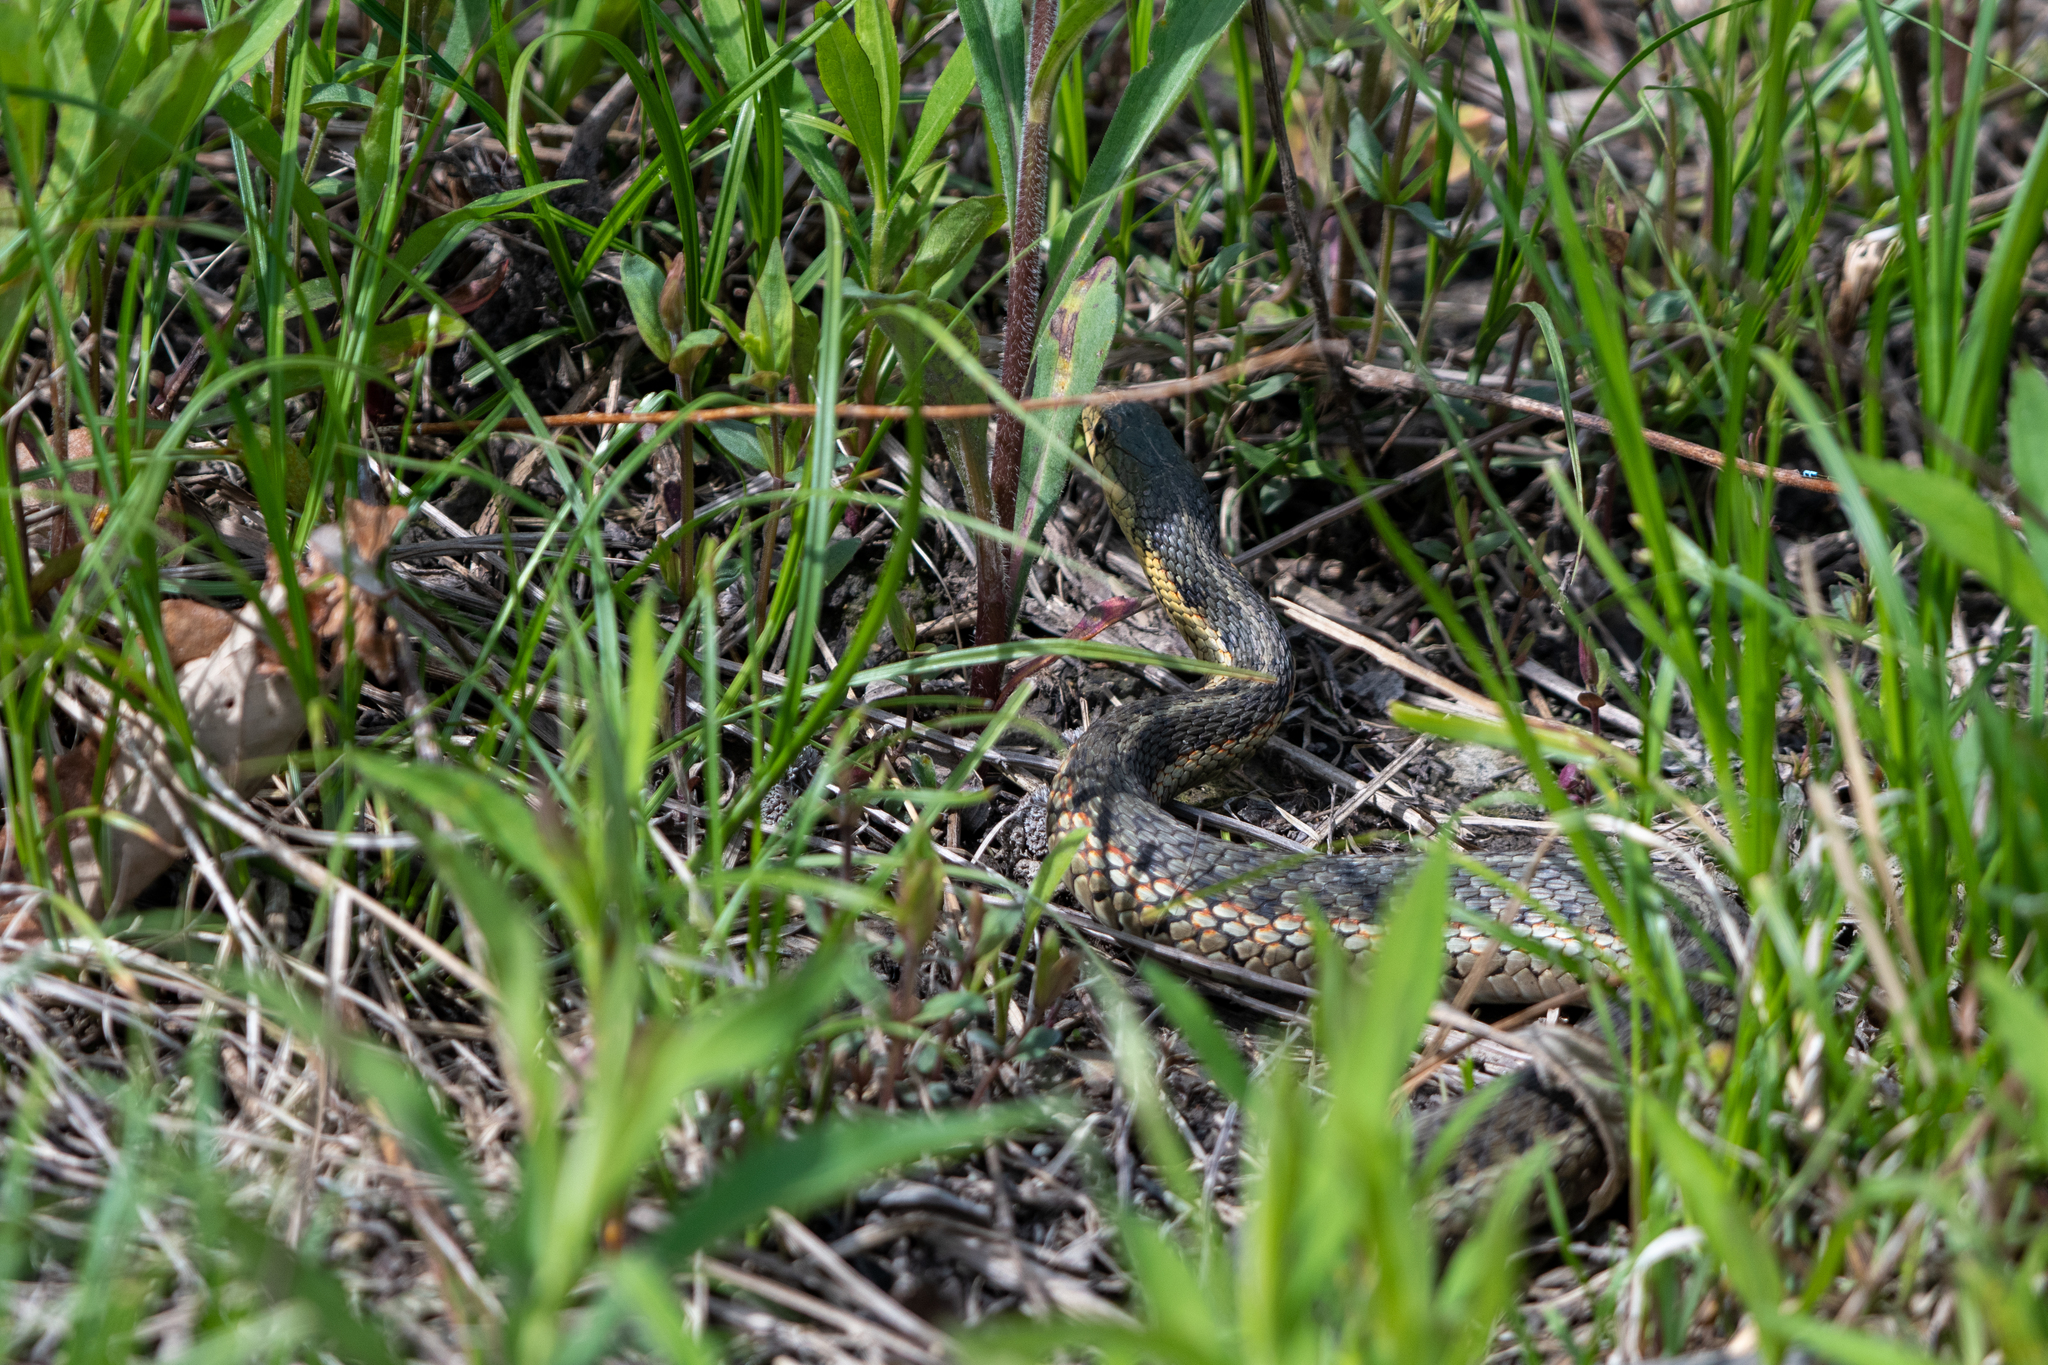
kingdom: Animalia
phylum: Chordata
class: Squamata
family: Colubridae
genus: Thamnophis
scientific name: Thamnophis sirtalis
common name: Common garter snake
